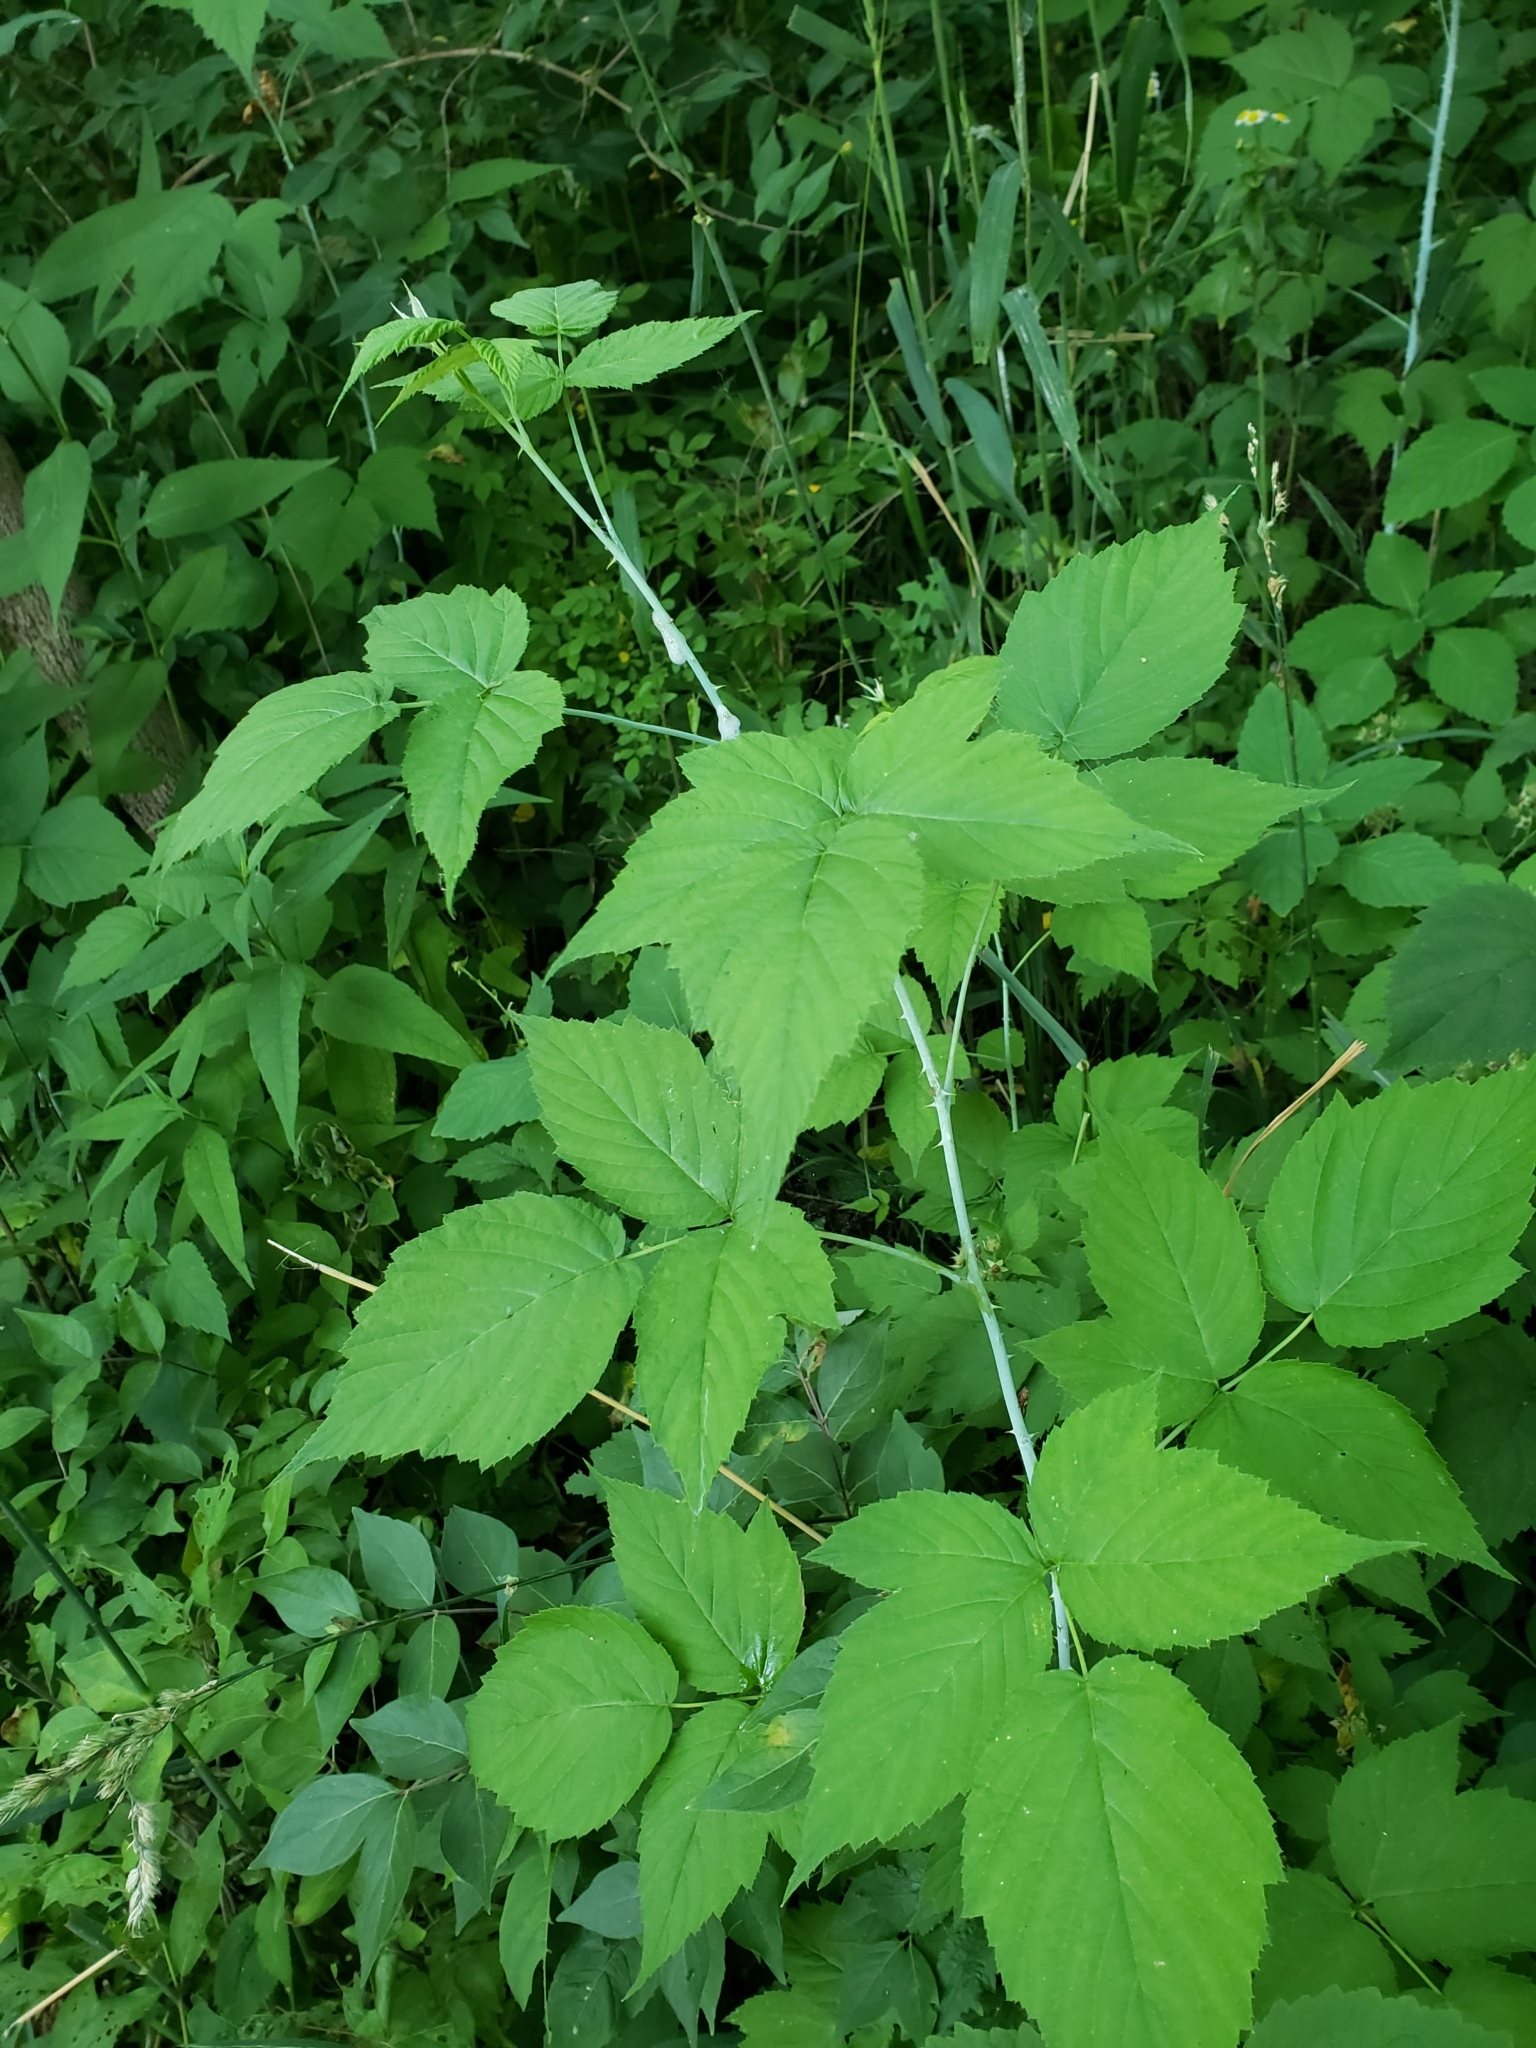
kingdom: Plantae
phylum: Tracheophyta
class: Magnoliopsida
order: Rosales
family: Rosaceae
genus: Rubus
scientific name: Rubus occidentalis
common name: Black raspberry
